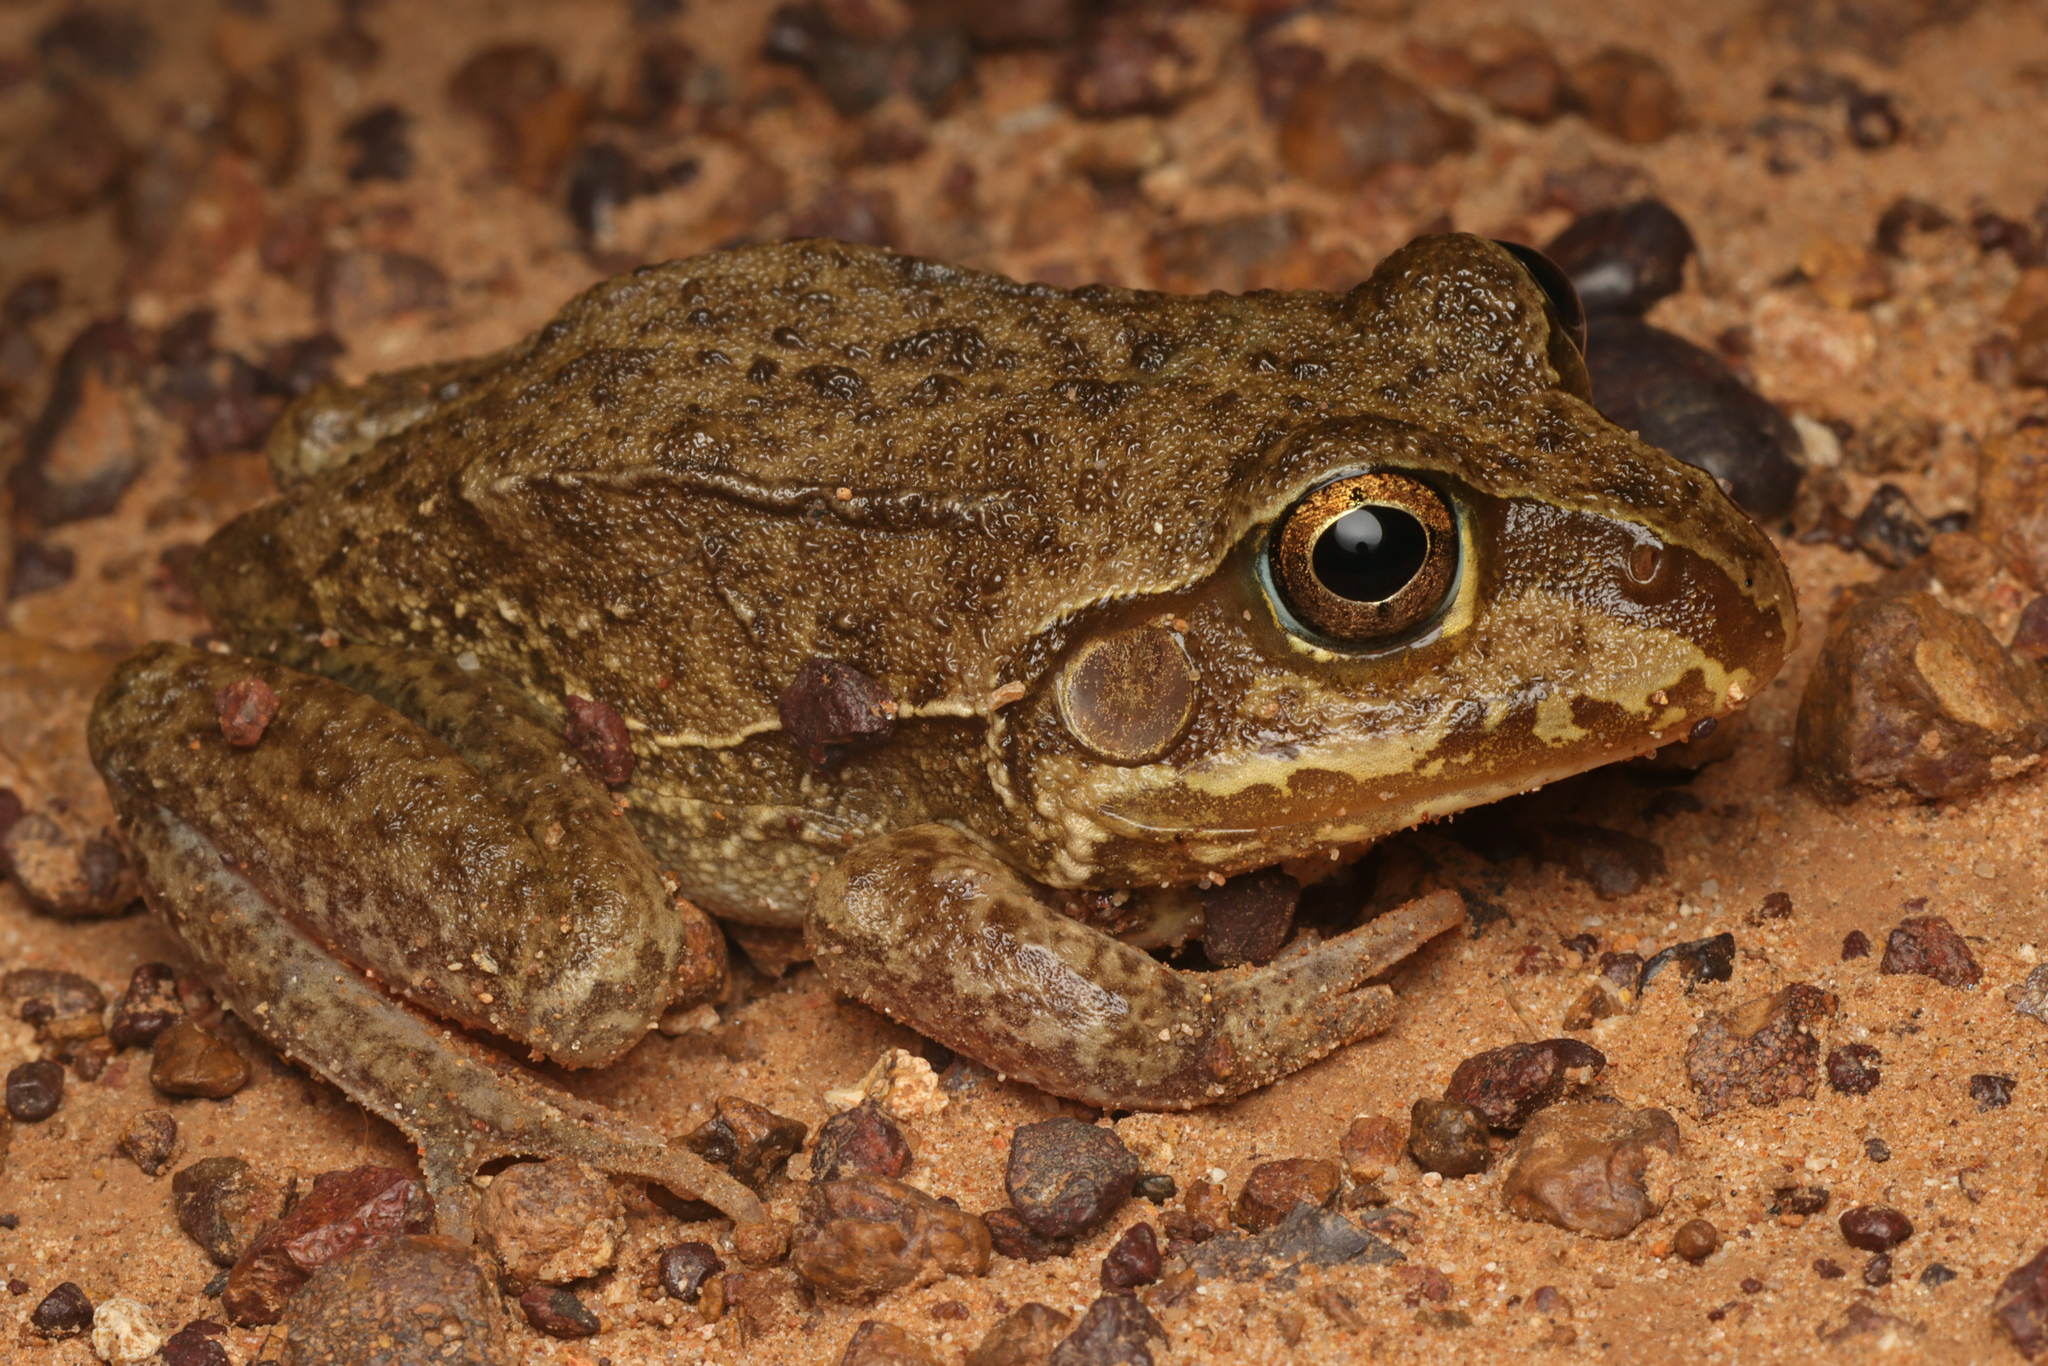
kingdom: Animalia
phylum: Chordata
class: Amphibia
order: Anura
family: Pelodryadidae
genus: Ranoidea
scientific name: Ranoidea australis
